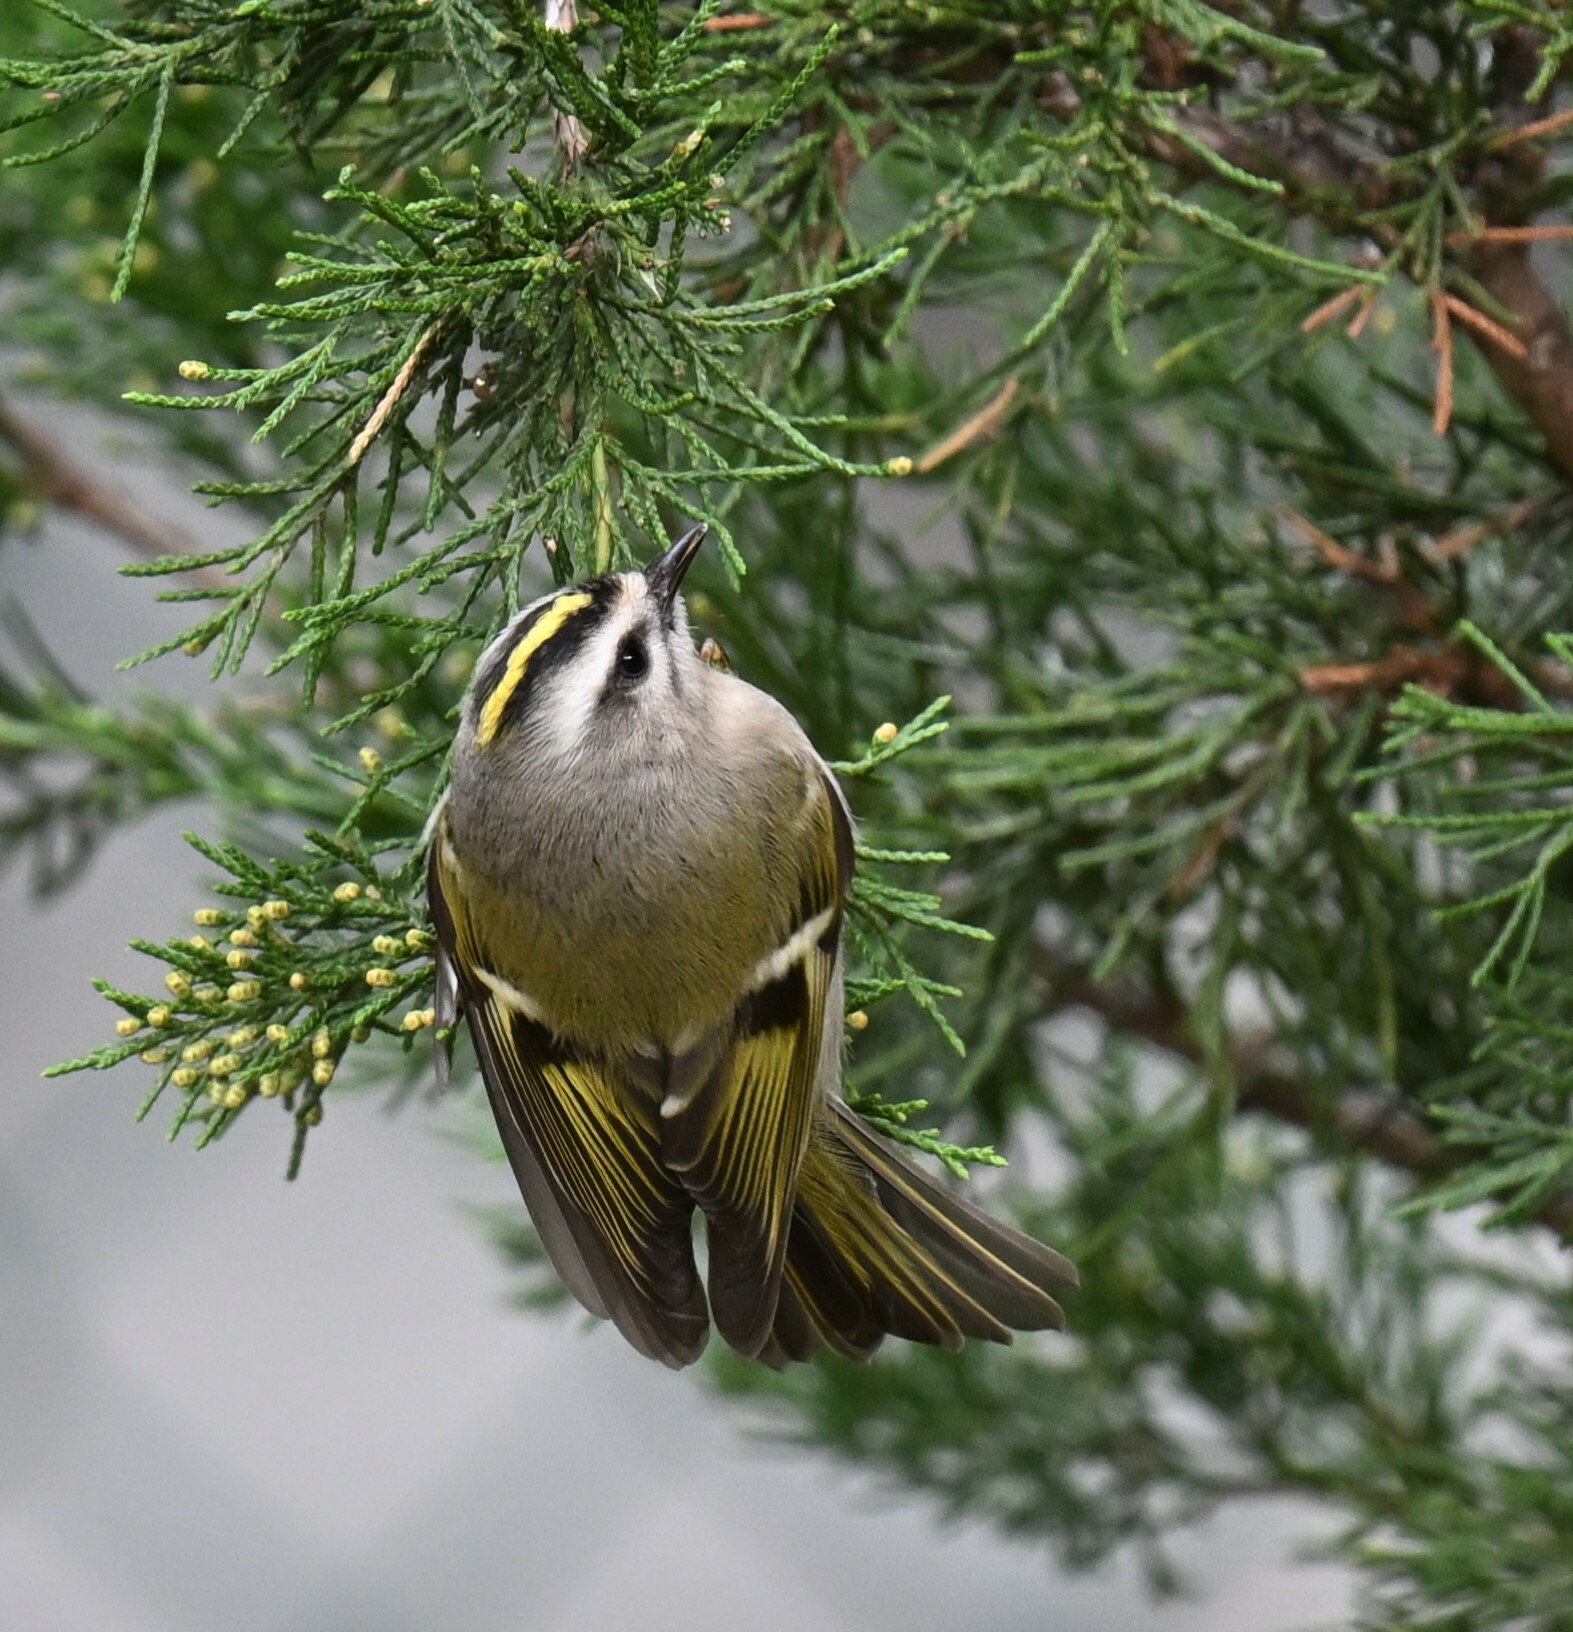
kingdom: Animalia
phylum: Chordata
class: Aves
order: Passeriformes
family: Regulidae
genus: Regulus
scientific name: Regulus satrapa
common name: Golden-crowned kinglet
